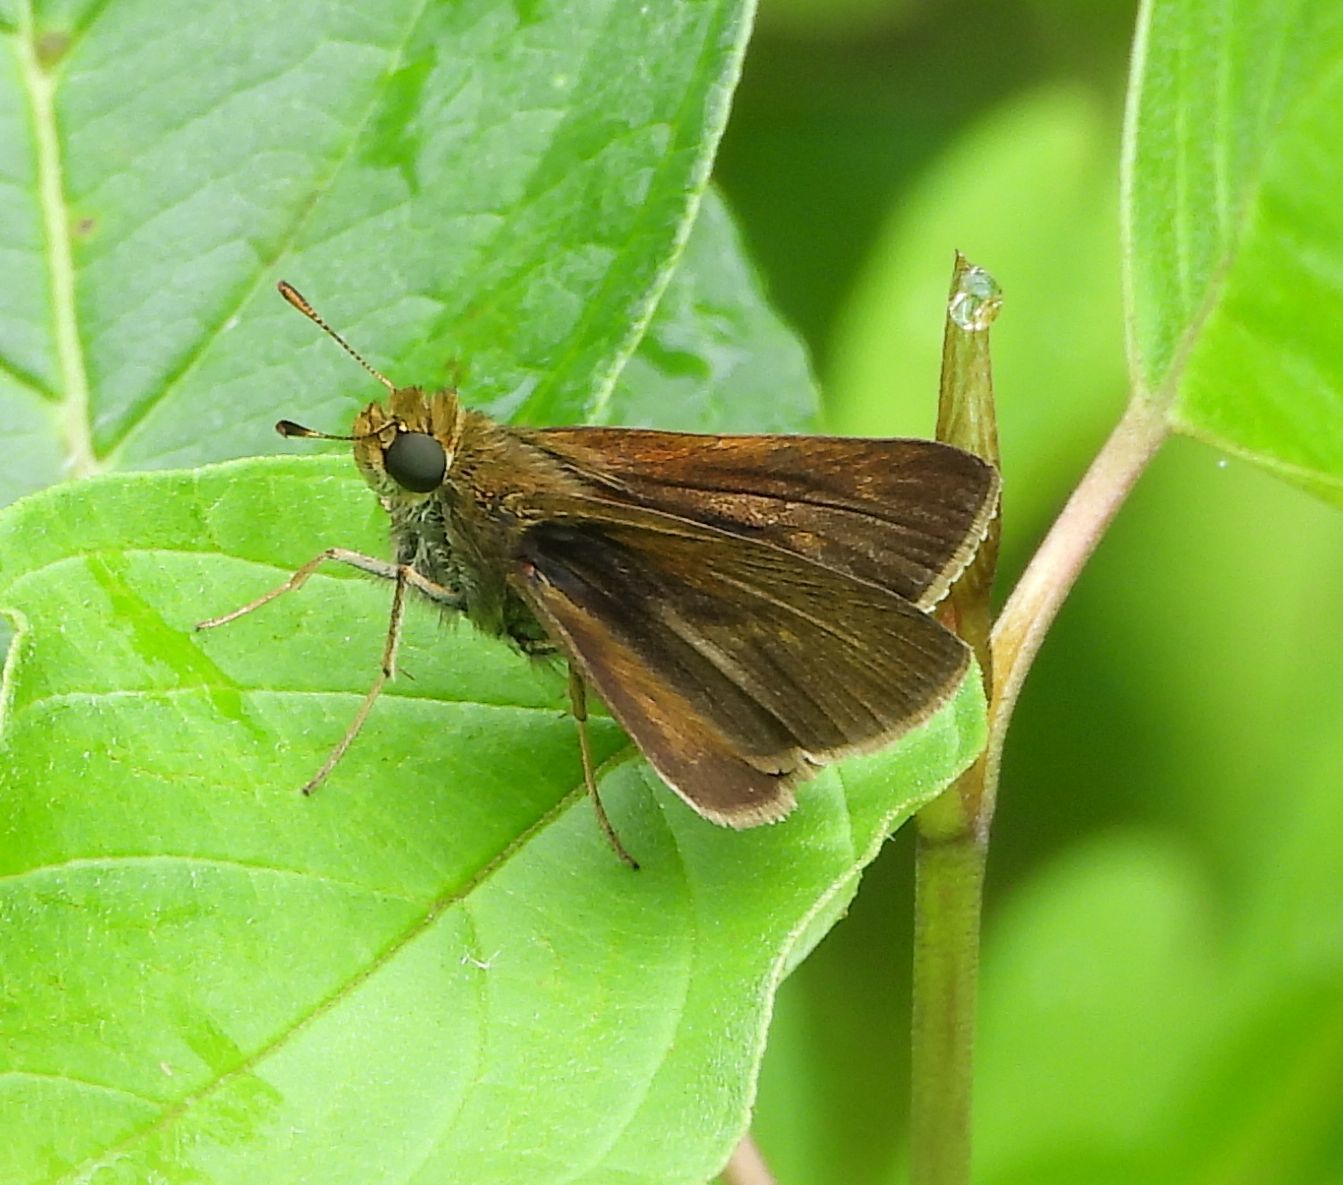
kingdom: Animalia
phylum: Arthropoda
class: Insecta
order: Lepidoptera
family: Hesperiidae
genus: Euphyes
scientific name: Euphyes vestris
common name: Dun skipper
